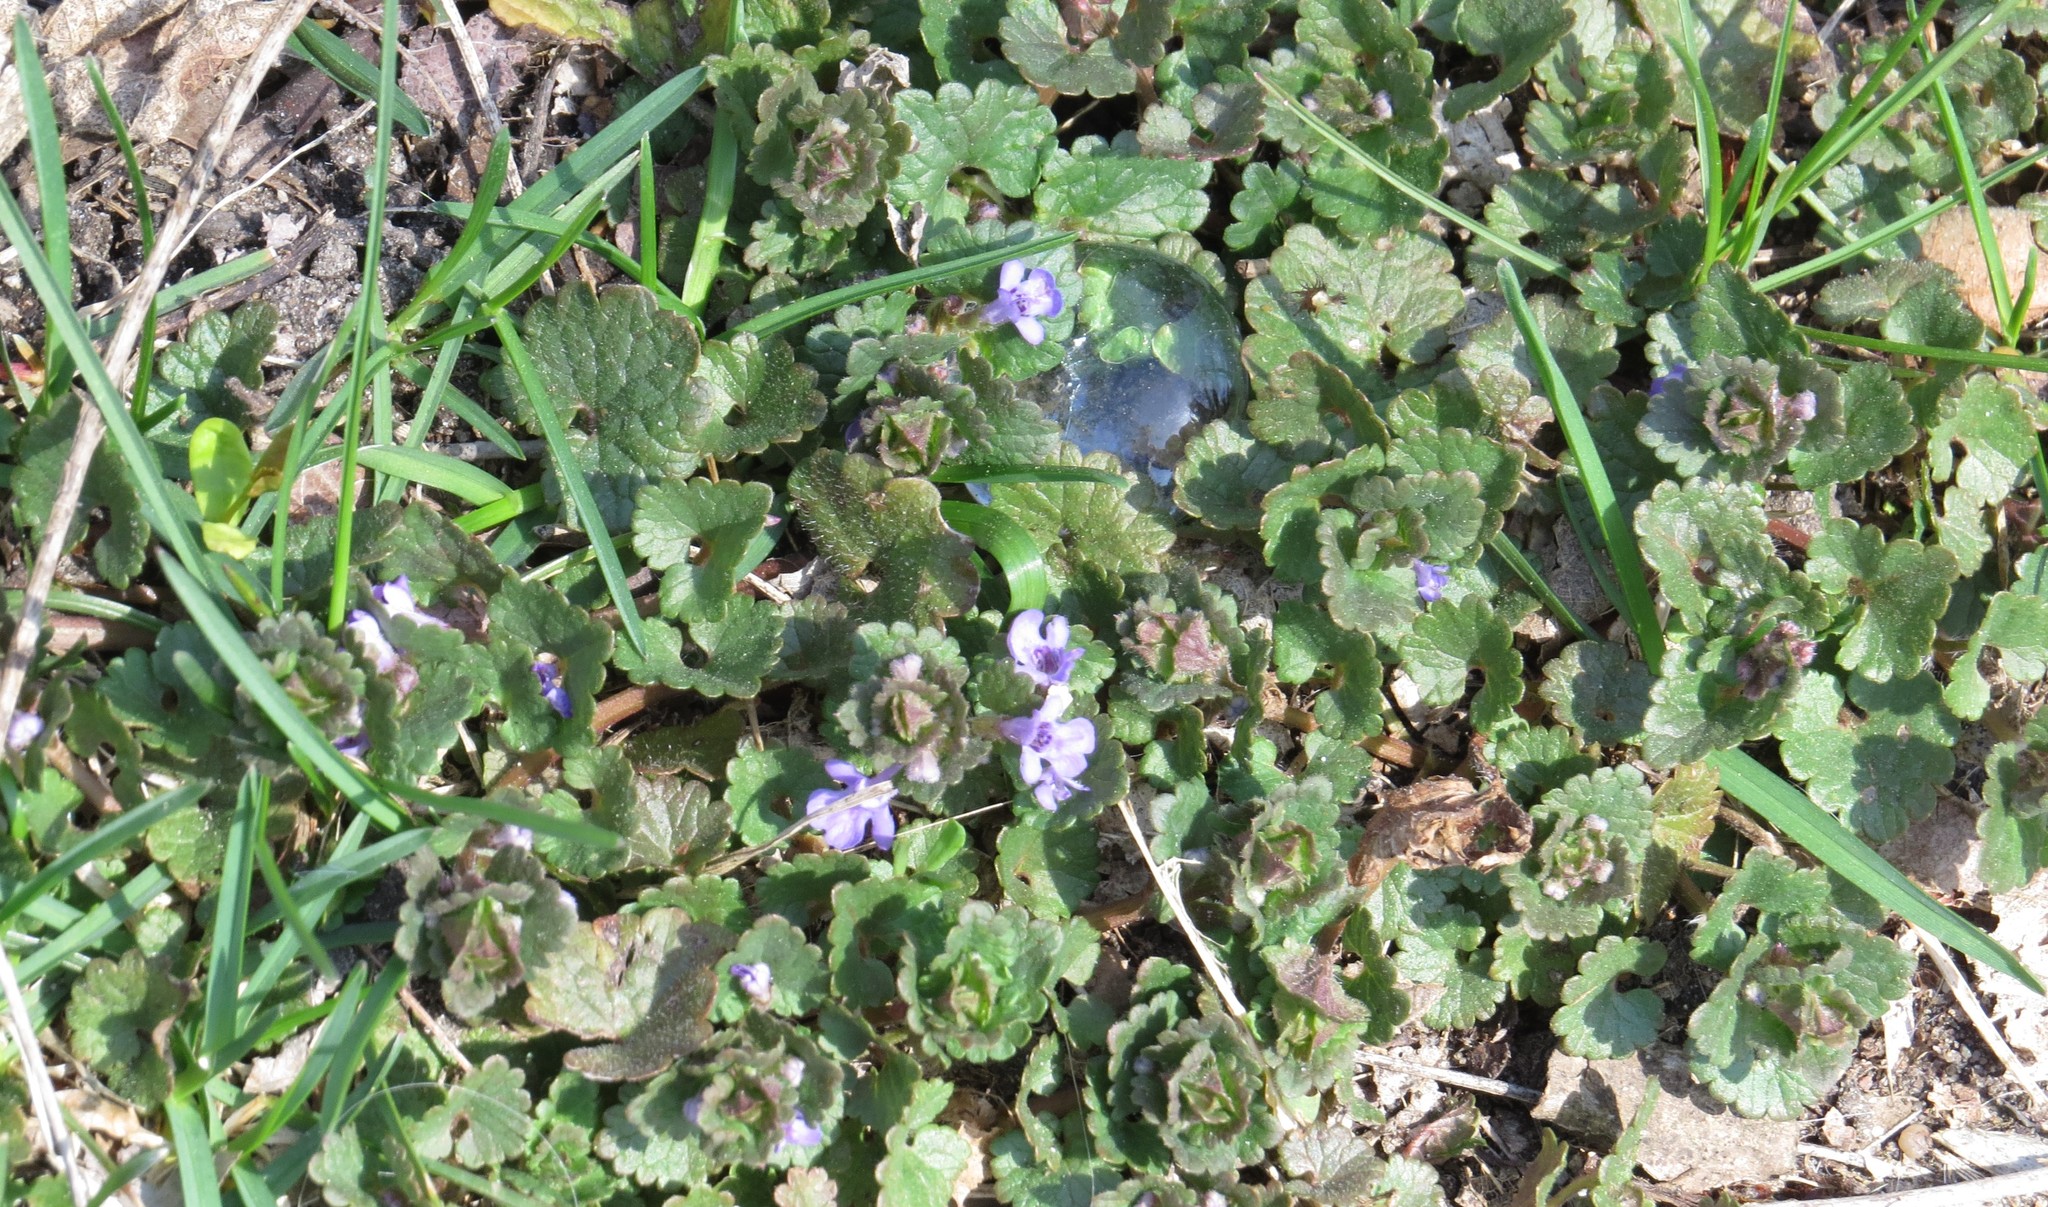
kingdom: Plantae
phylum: Tracheophyta
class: Magnoliopsida
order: Lamiales
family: Lamiaceae
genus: Glechoma
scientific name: Glechoma hederacea
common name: Ground ivy
